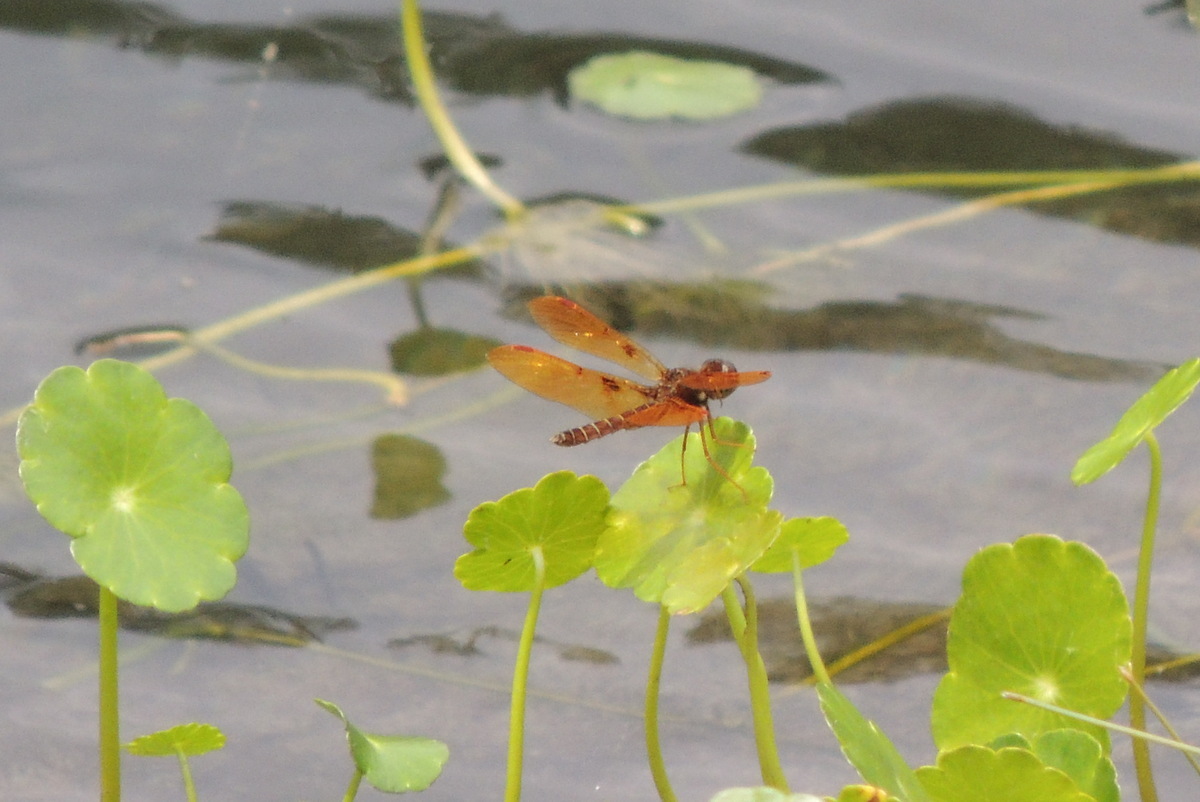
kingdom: Animalia
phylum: Arthropoda
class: Insecta
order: Odonata
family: Libellulidae
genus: Perithemis
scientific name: Perithemis tenera
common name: Eastern amberwing
